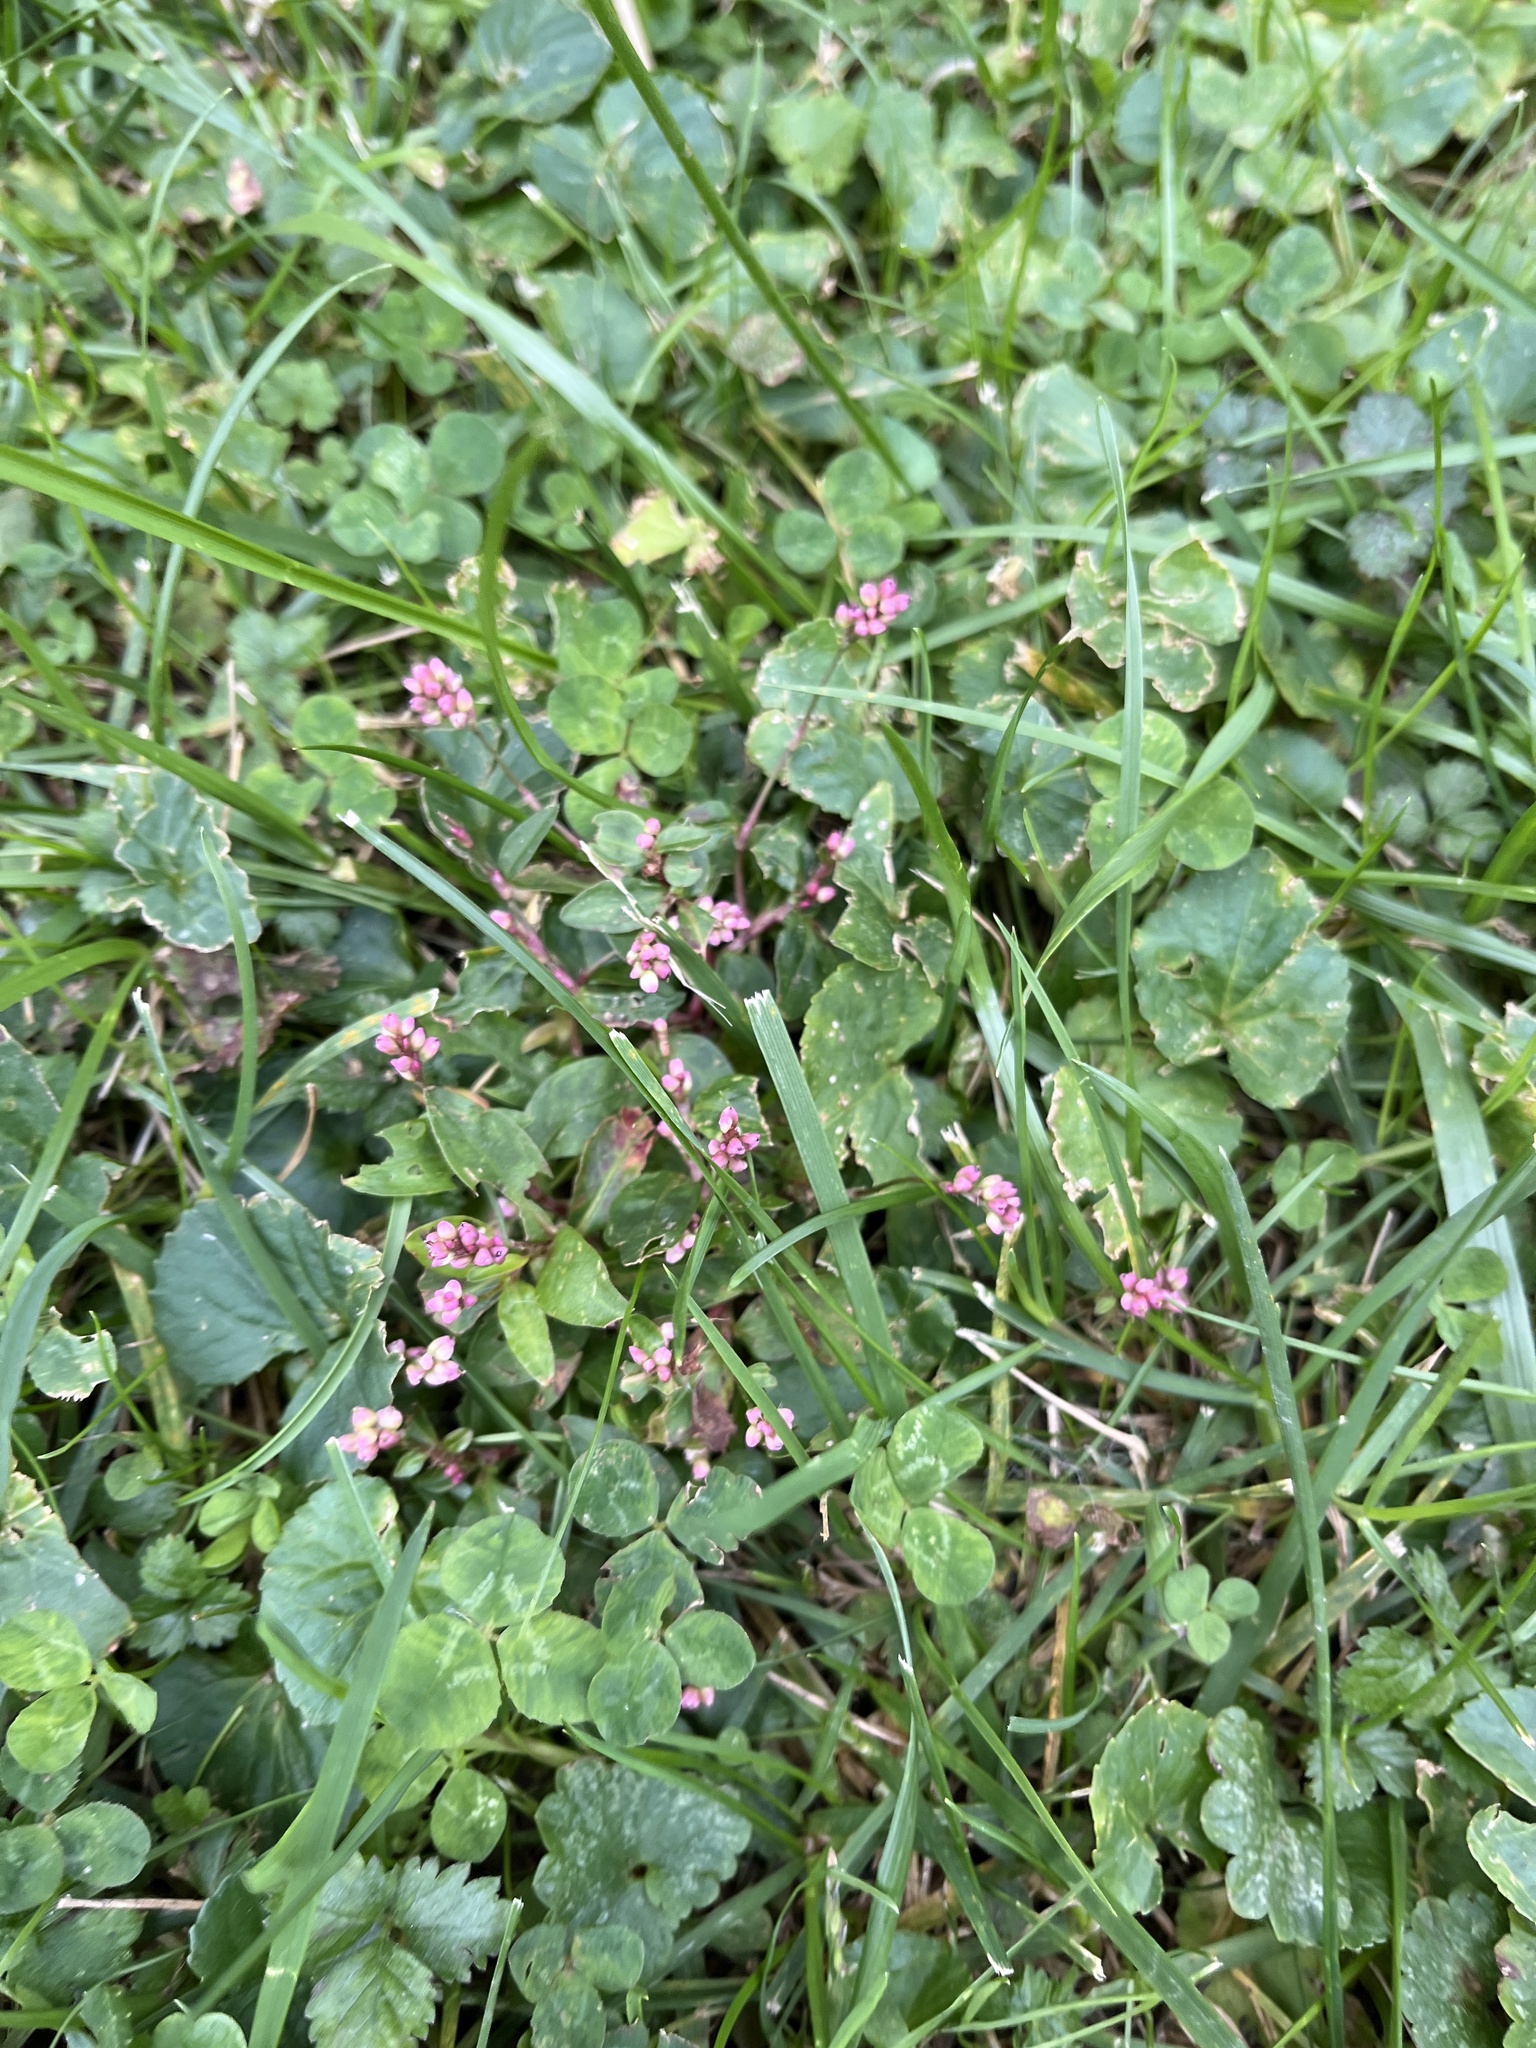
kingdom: Plantae
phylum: Tracheophyta
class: Magnoliopsida
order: Caryophyllales
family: Polygonaceae
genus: Persicaria
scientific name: Persicaria longiseta
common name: Bristly lady's-thumb
